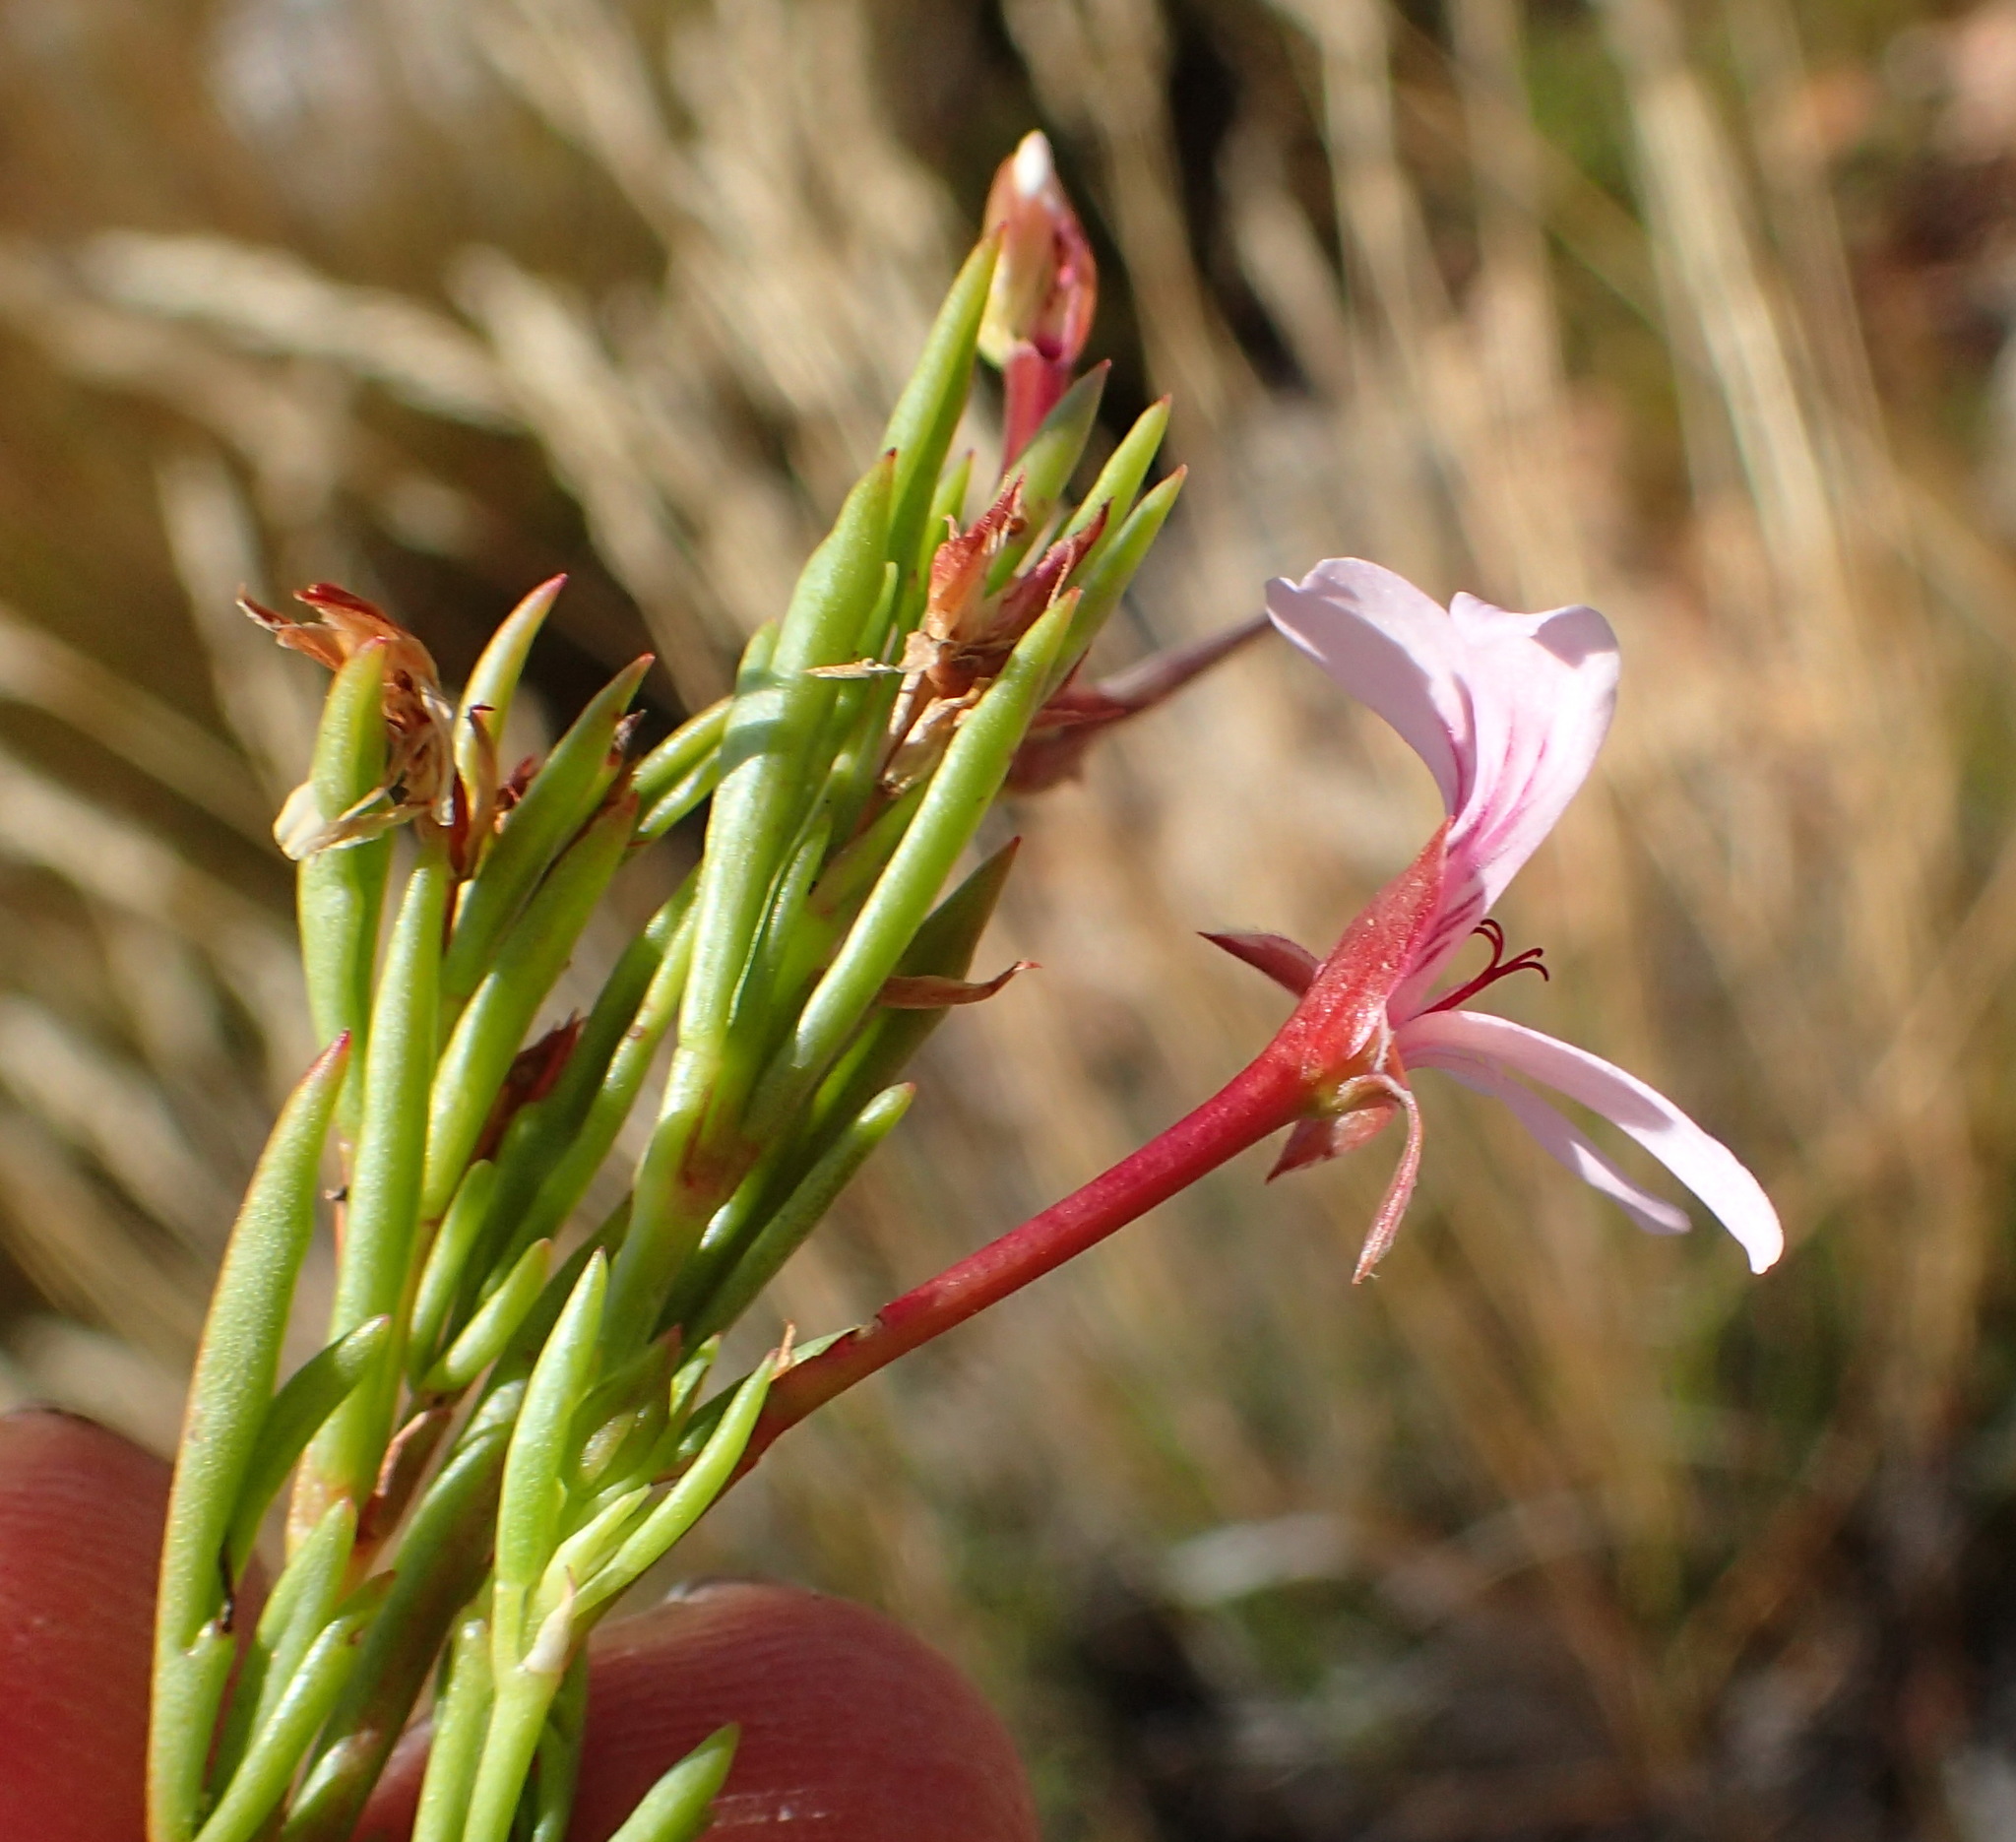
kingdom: Plantae
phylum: Tracheophyta
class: Magnoliopsida
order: Geraniales
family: Geraniaceae
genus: Pelargonium
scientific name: Pelargonium laevigatum
